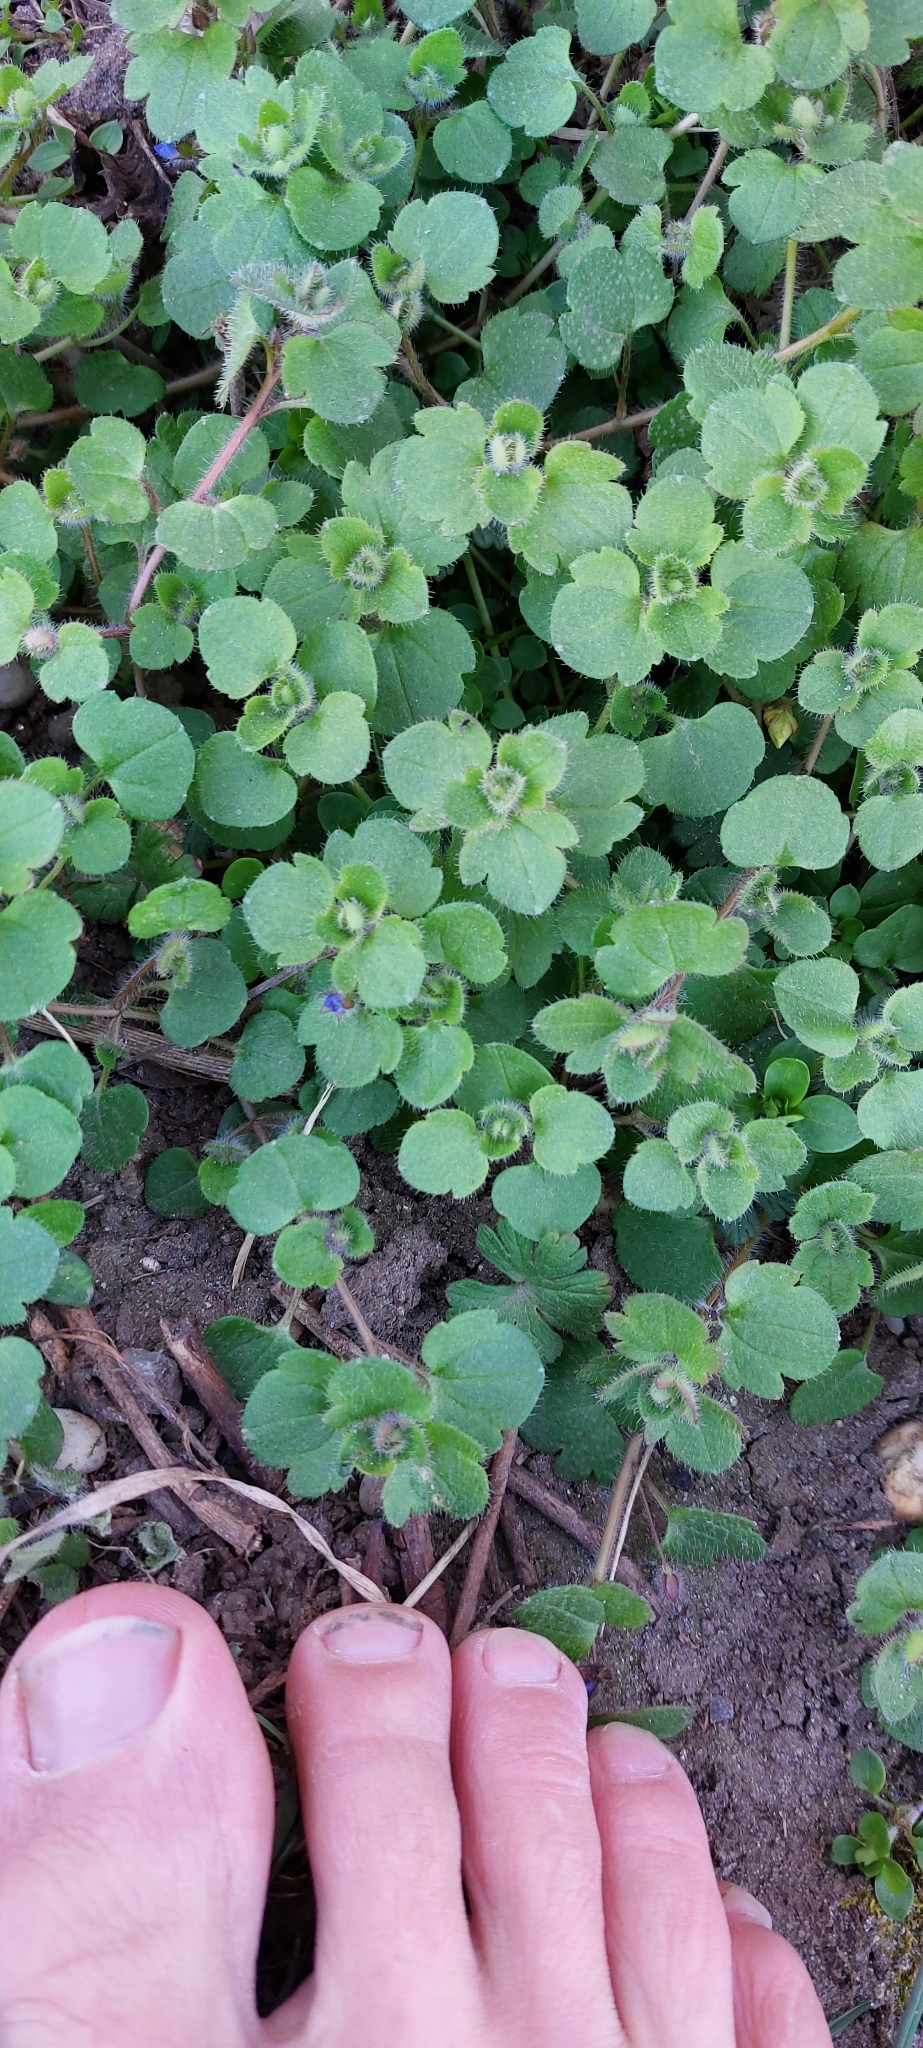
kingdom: Plantae
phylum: Tracheophyta
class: Magnoliopsida
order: Lamiales
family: Plantaginaceae
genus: Veronica
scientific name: Veronica hederifolia
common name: Ivy-leaved speedwell
